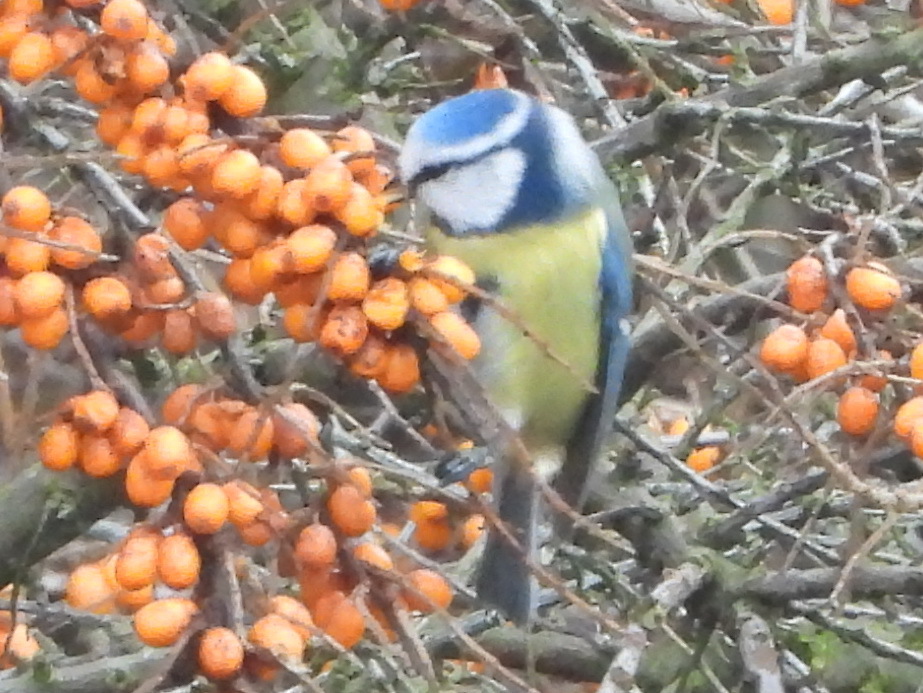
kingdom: Animalia
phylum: Chordata
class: Aves
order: Passeriformes
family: Paridae
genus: Cyanistes
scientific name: Cyanistes caeruleus
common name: Eurasian blue tit
